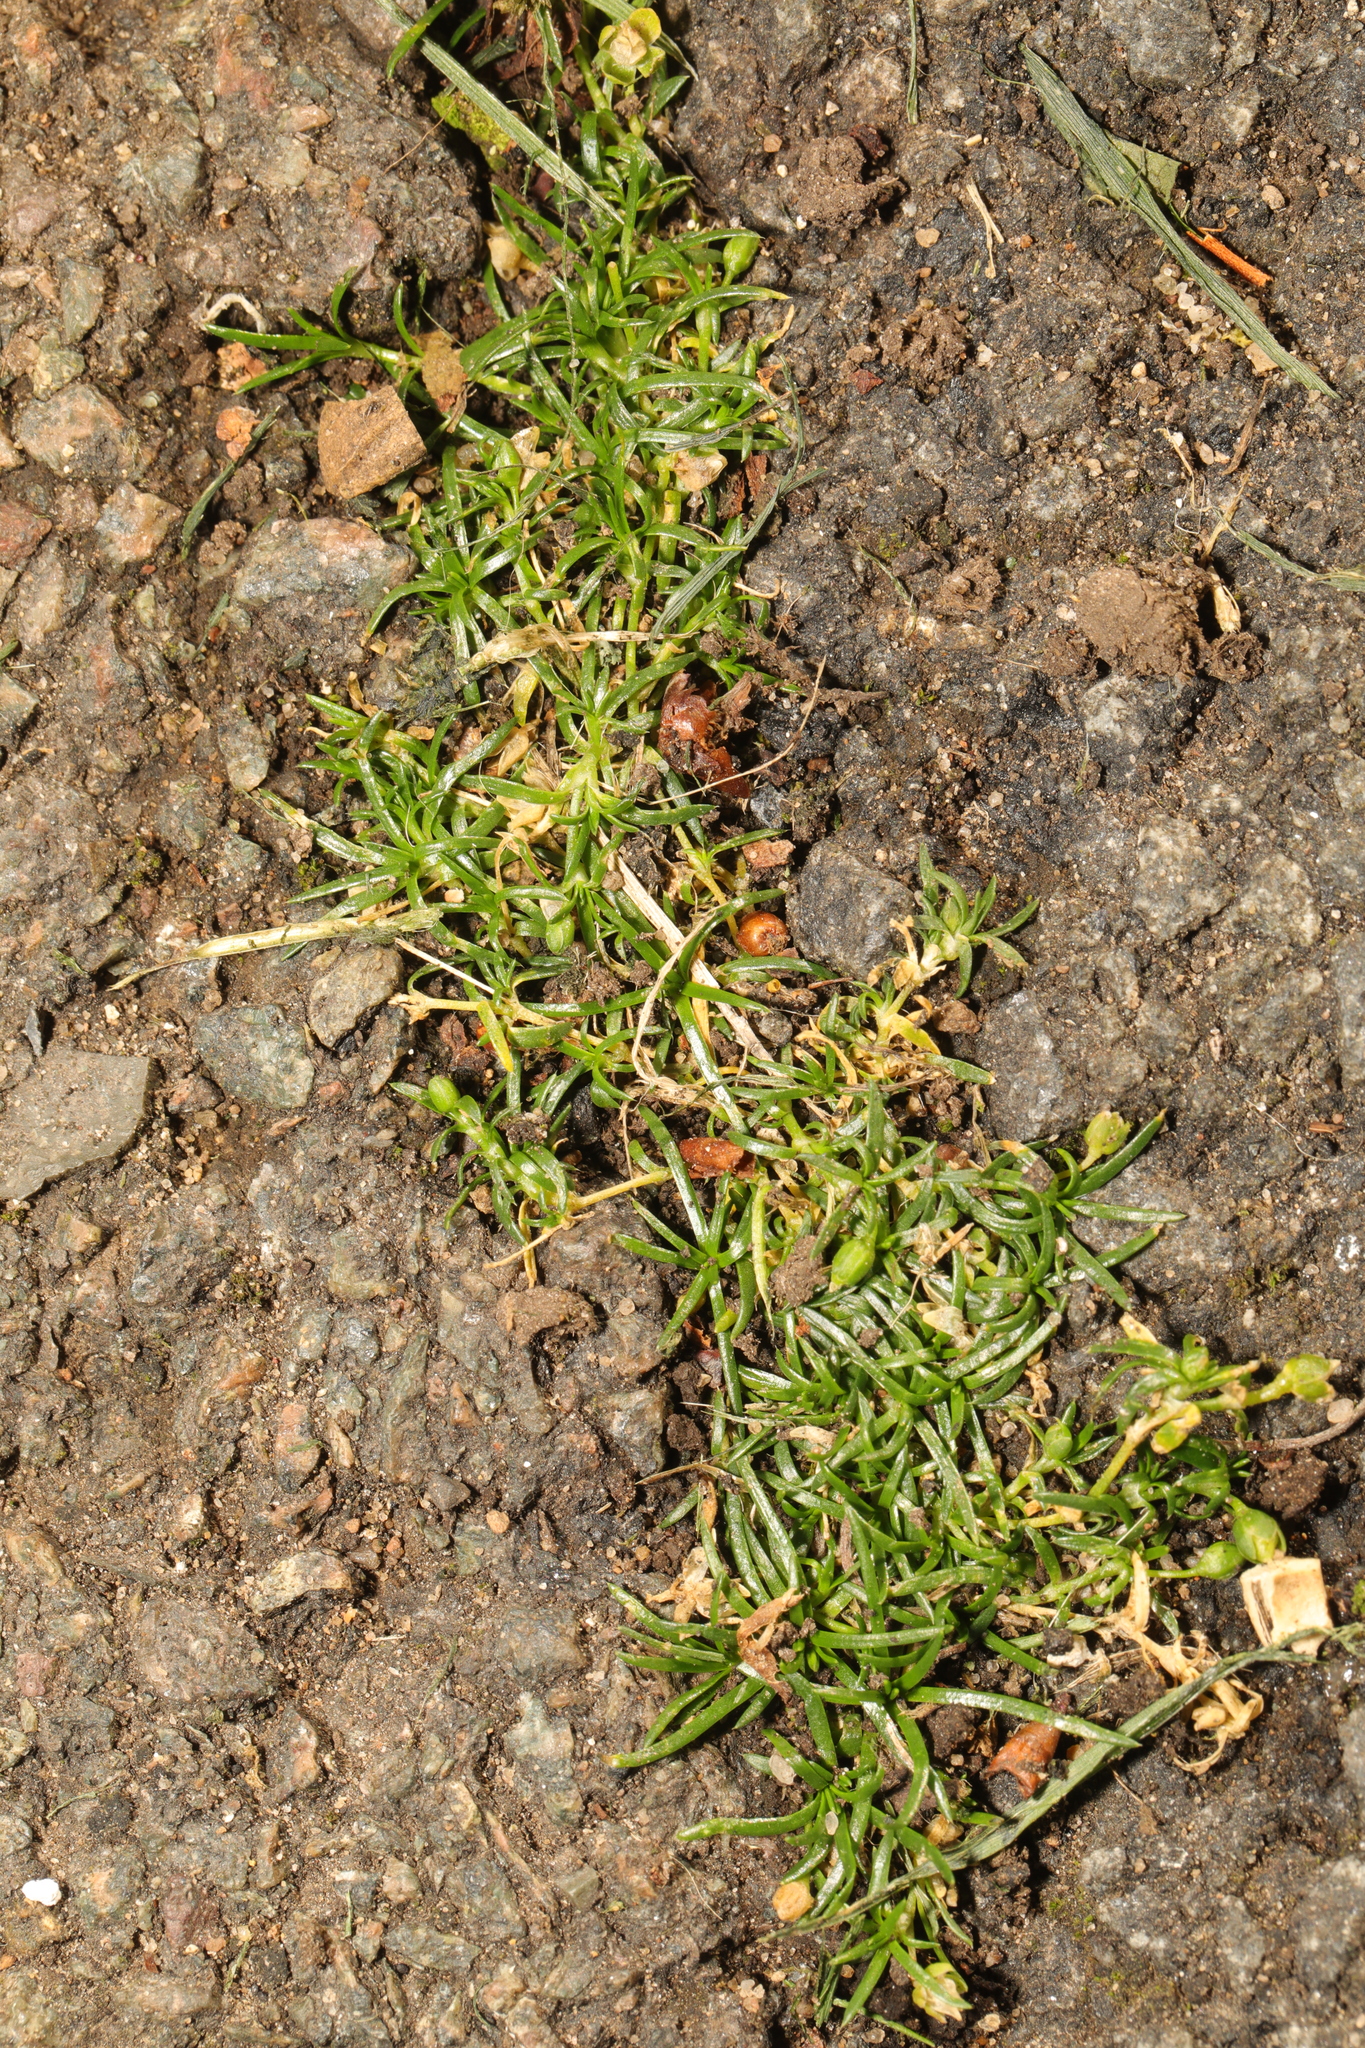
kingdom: Plantae
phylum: Tracheophyta
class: Magnoliopsida
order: Caryophyllales
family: Caryophyllaceae
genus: Sagina
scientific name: Sagina procumbens
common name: Procumbent pearlwort
